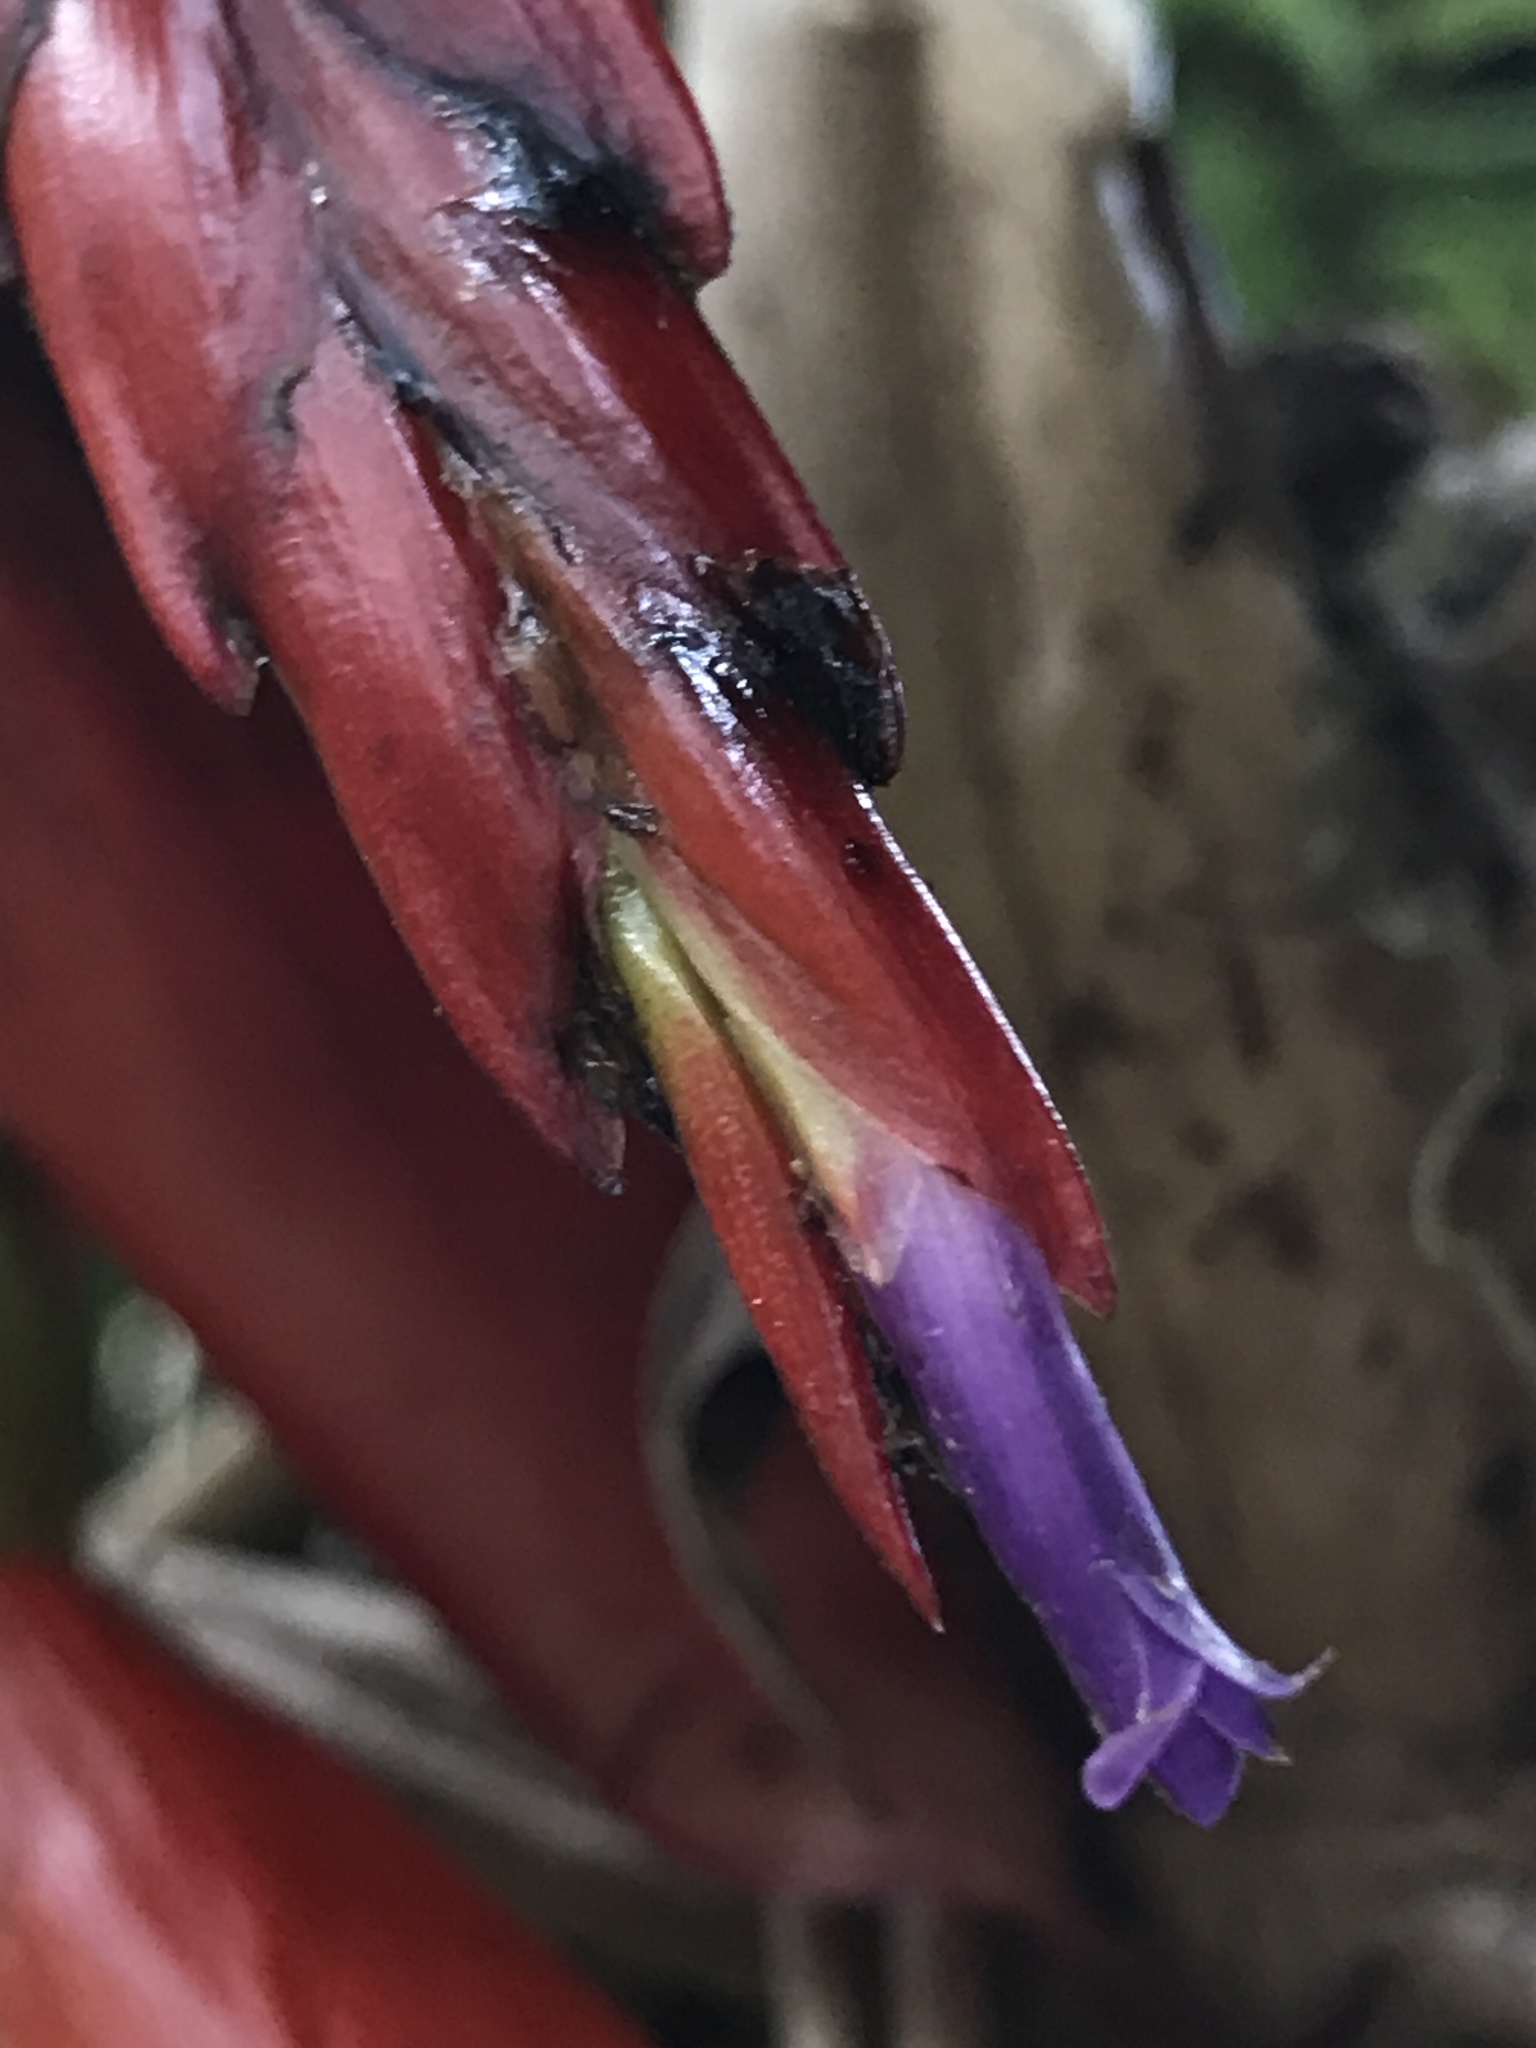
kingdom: Plantae
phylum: Tracheophyta
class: Liliopsida
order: Poales
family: Bromeliaceae
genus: Tillandsia
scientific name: Tillandsia compacta
